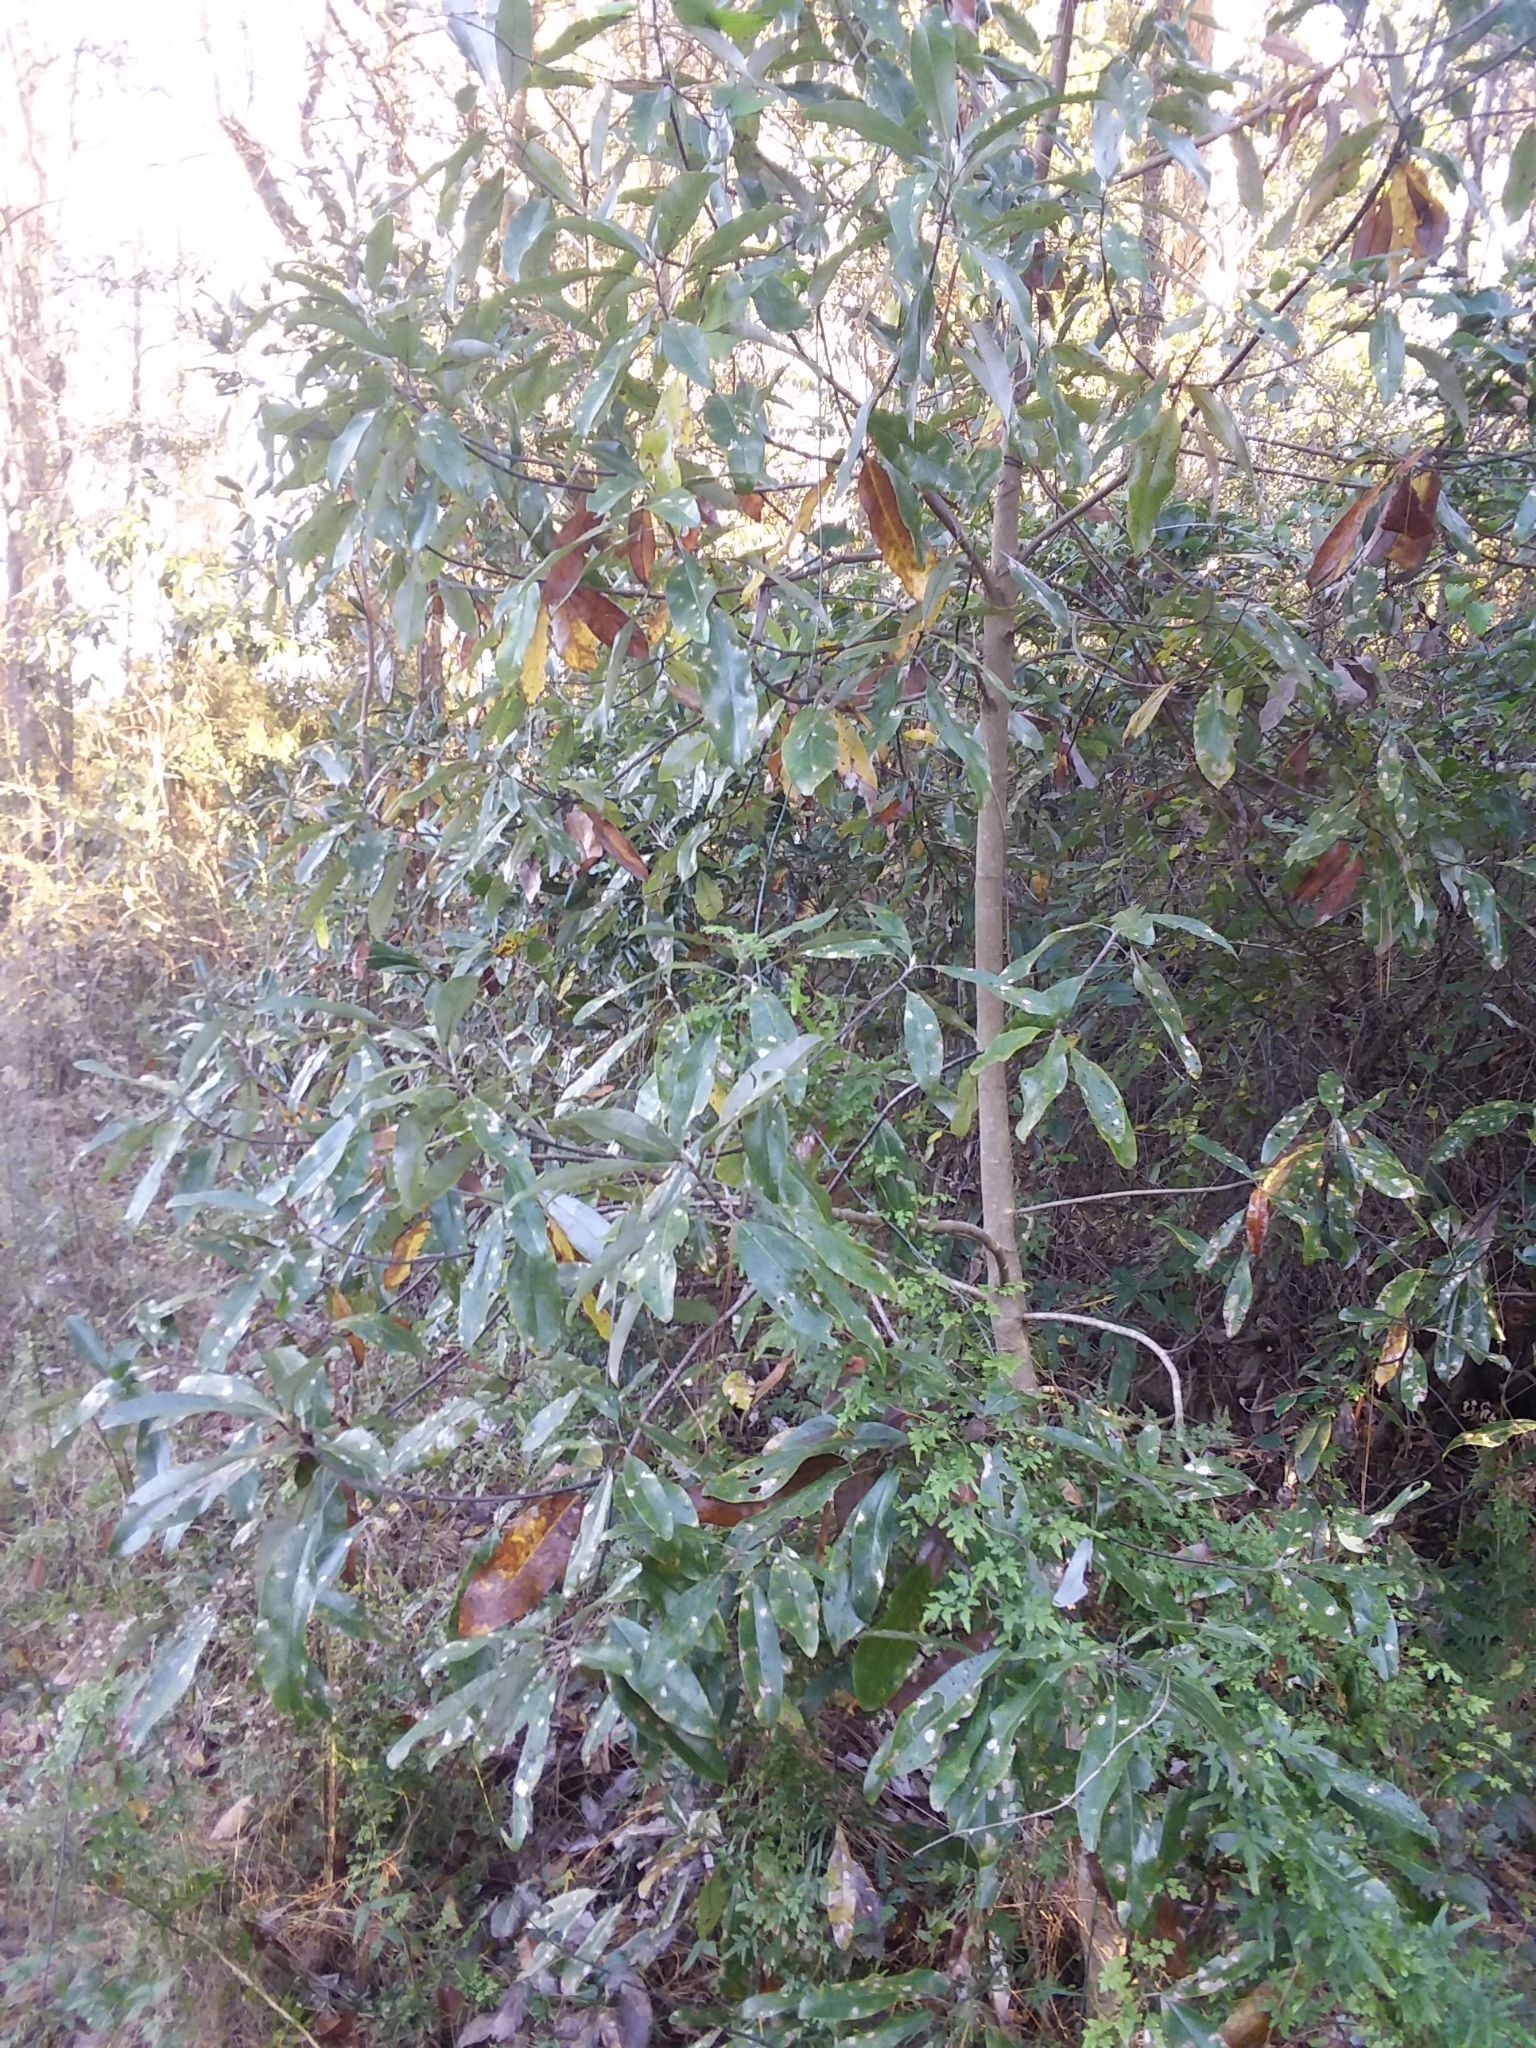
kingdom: Plantae
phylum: Tracheophyta
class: Magnoliopsida
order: Magnoliales
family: Magnoliaceae
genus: Magnolia
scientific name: Magnolia virginiana
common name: Swamp bay
